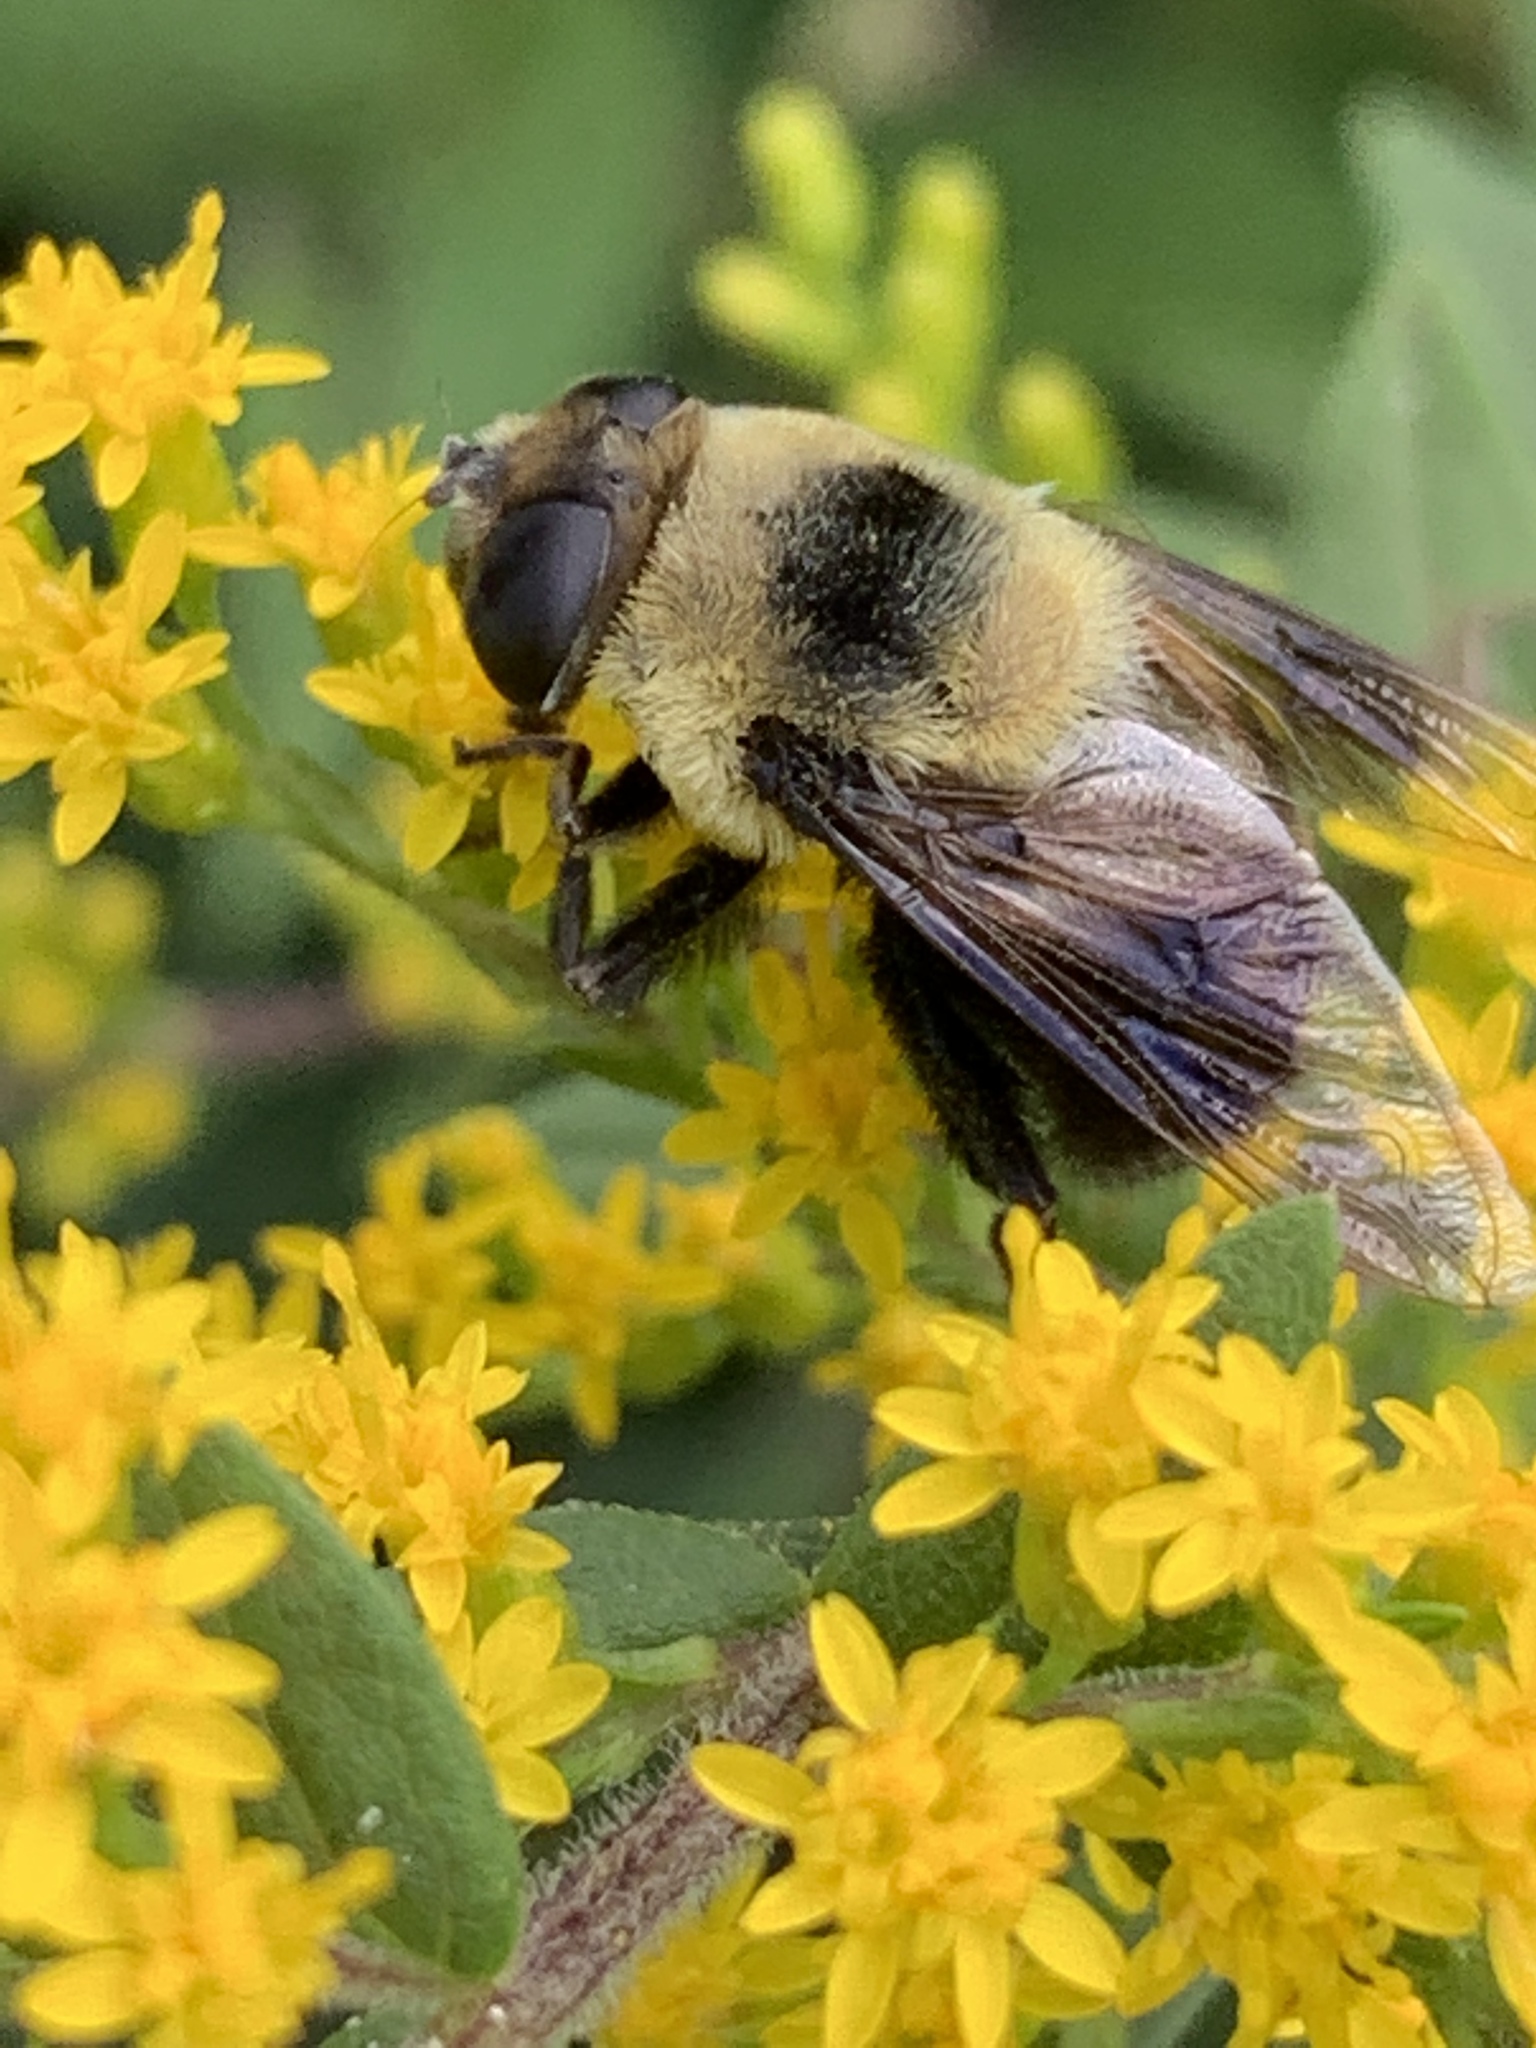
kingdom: Animalia
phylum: Arthropoda
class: Insecta
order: Diptera
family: Syrphidae
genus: Eristalis
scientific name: Eristalis flavipes
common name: Orange-legged drone fly
